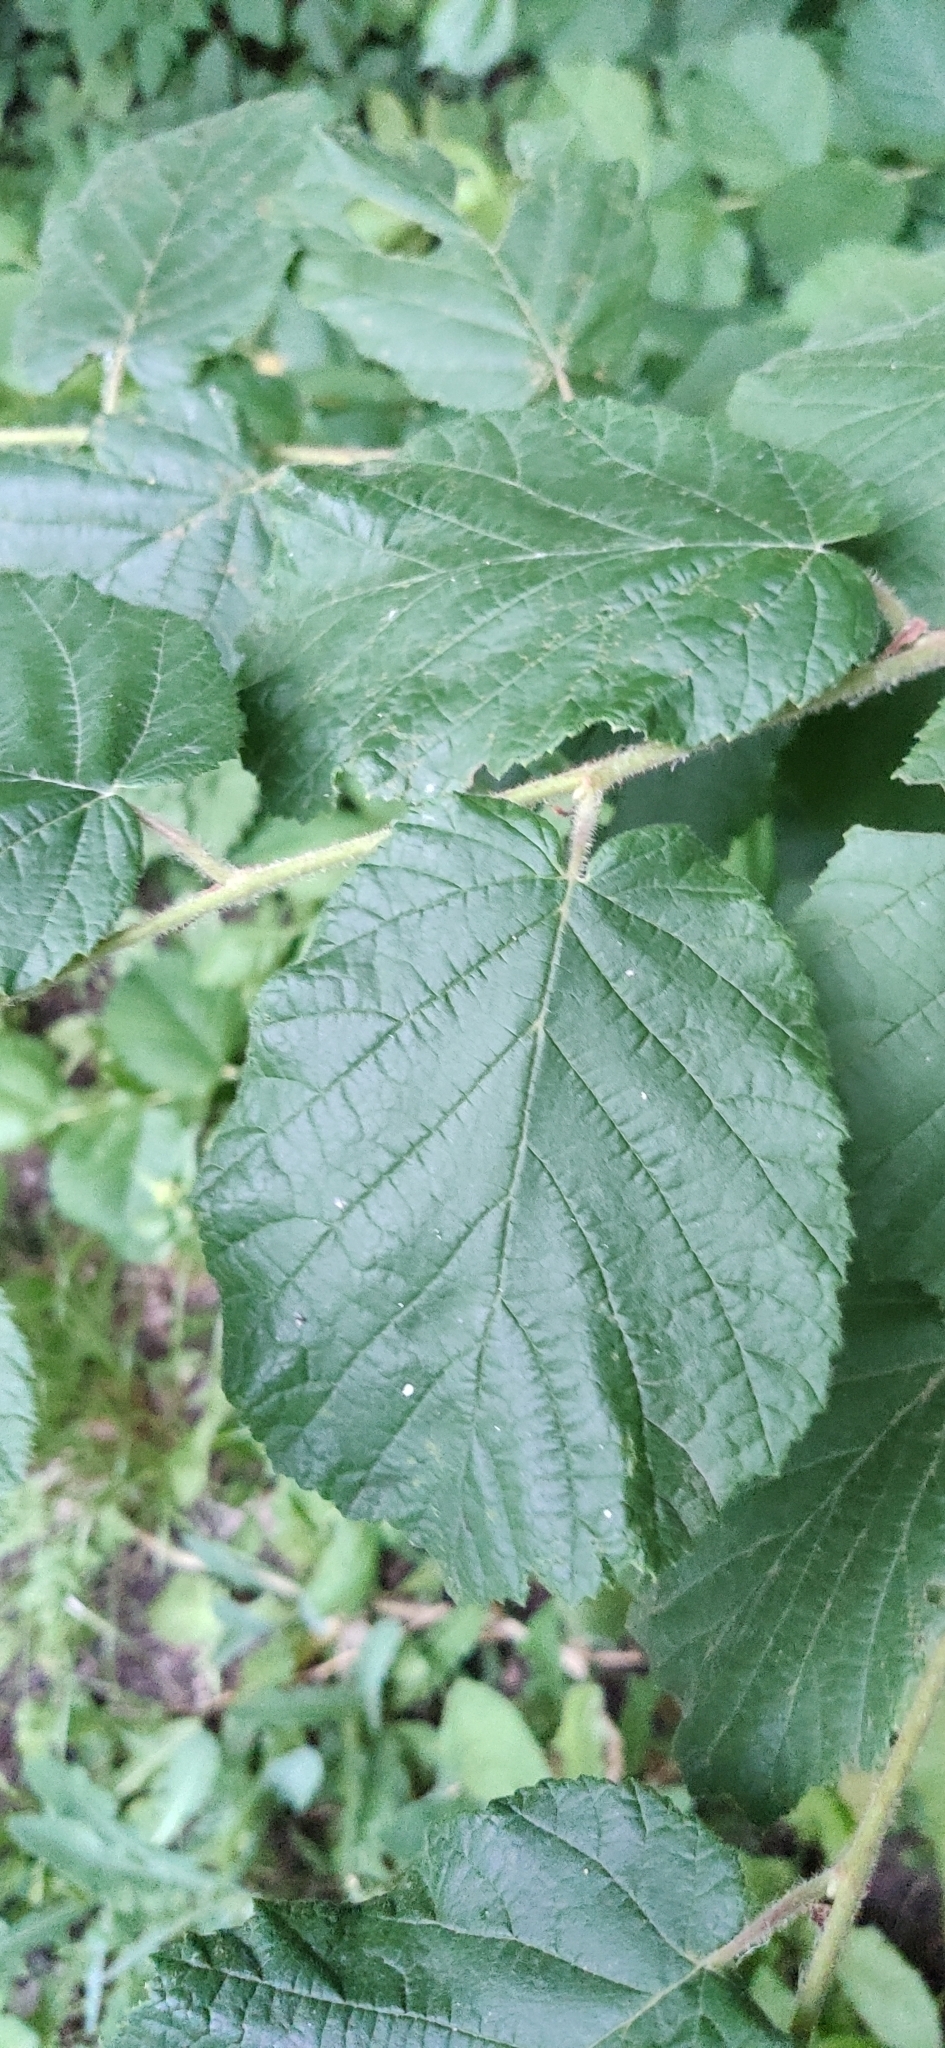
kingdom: Plantae
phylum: Tracheophyta
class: Magnoliopsida
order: Fagales
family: Betulaceae
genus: Corylus
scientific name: Corylus avellana
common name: European hazel
